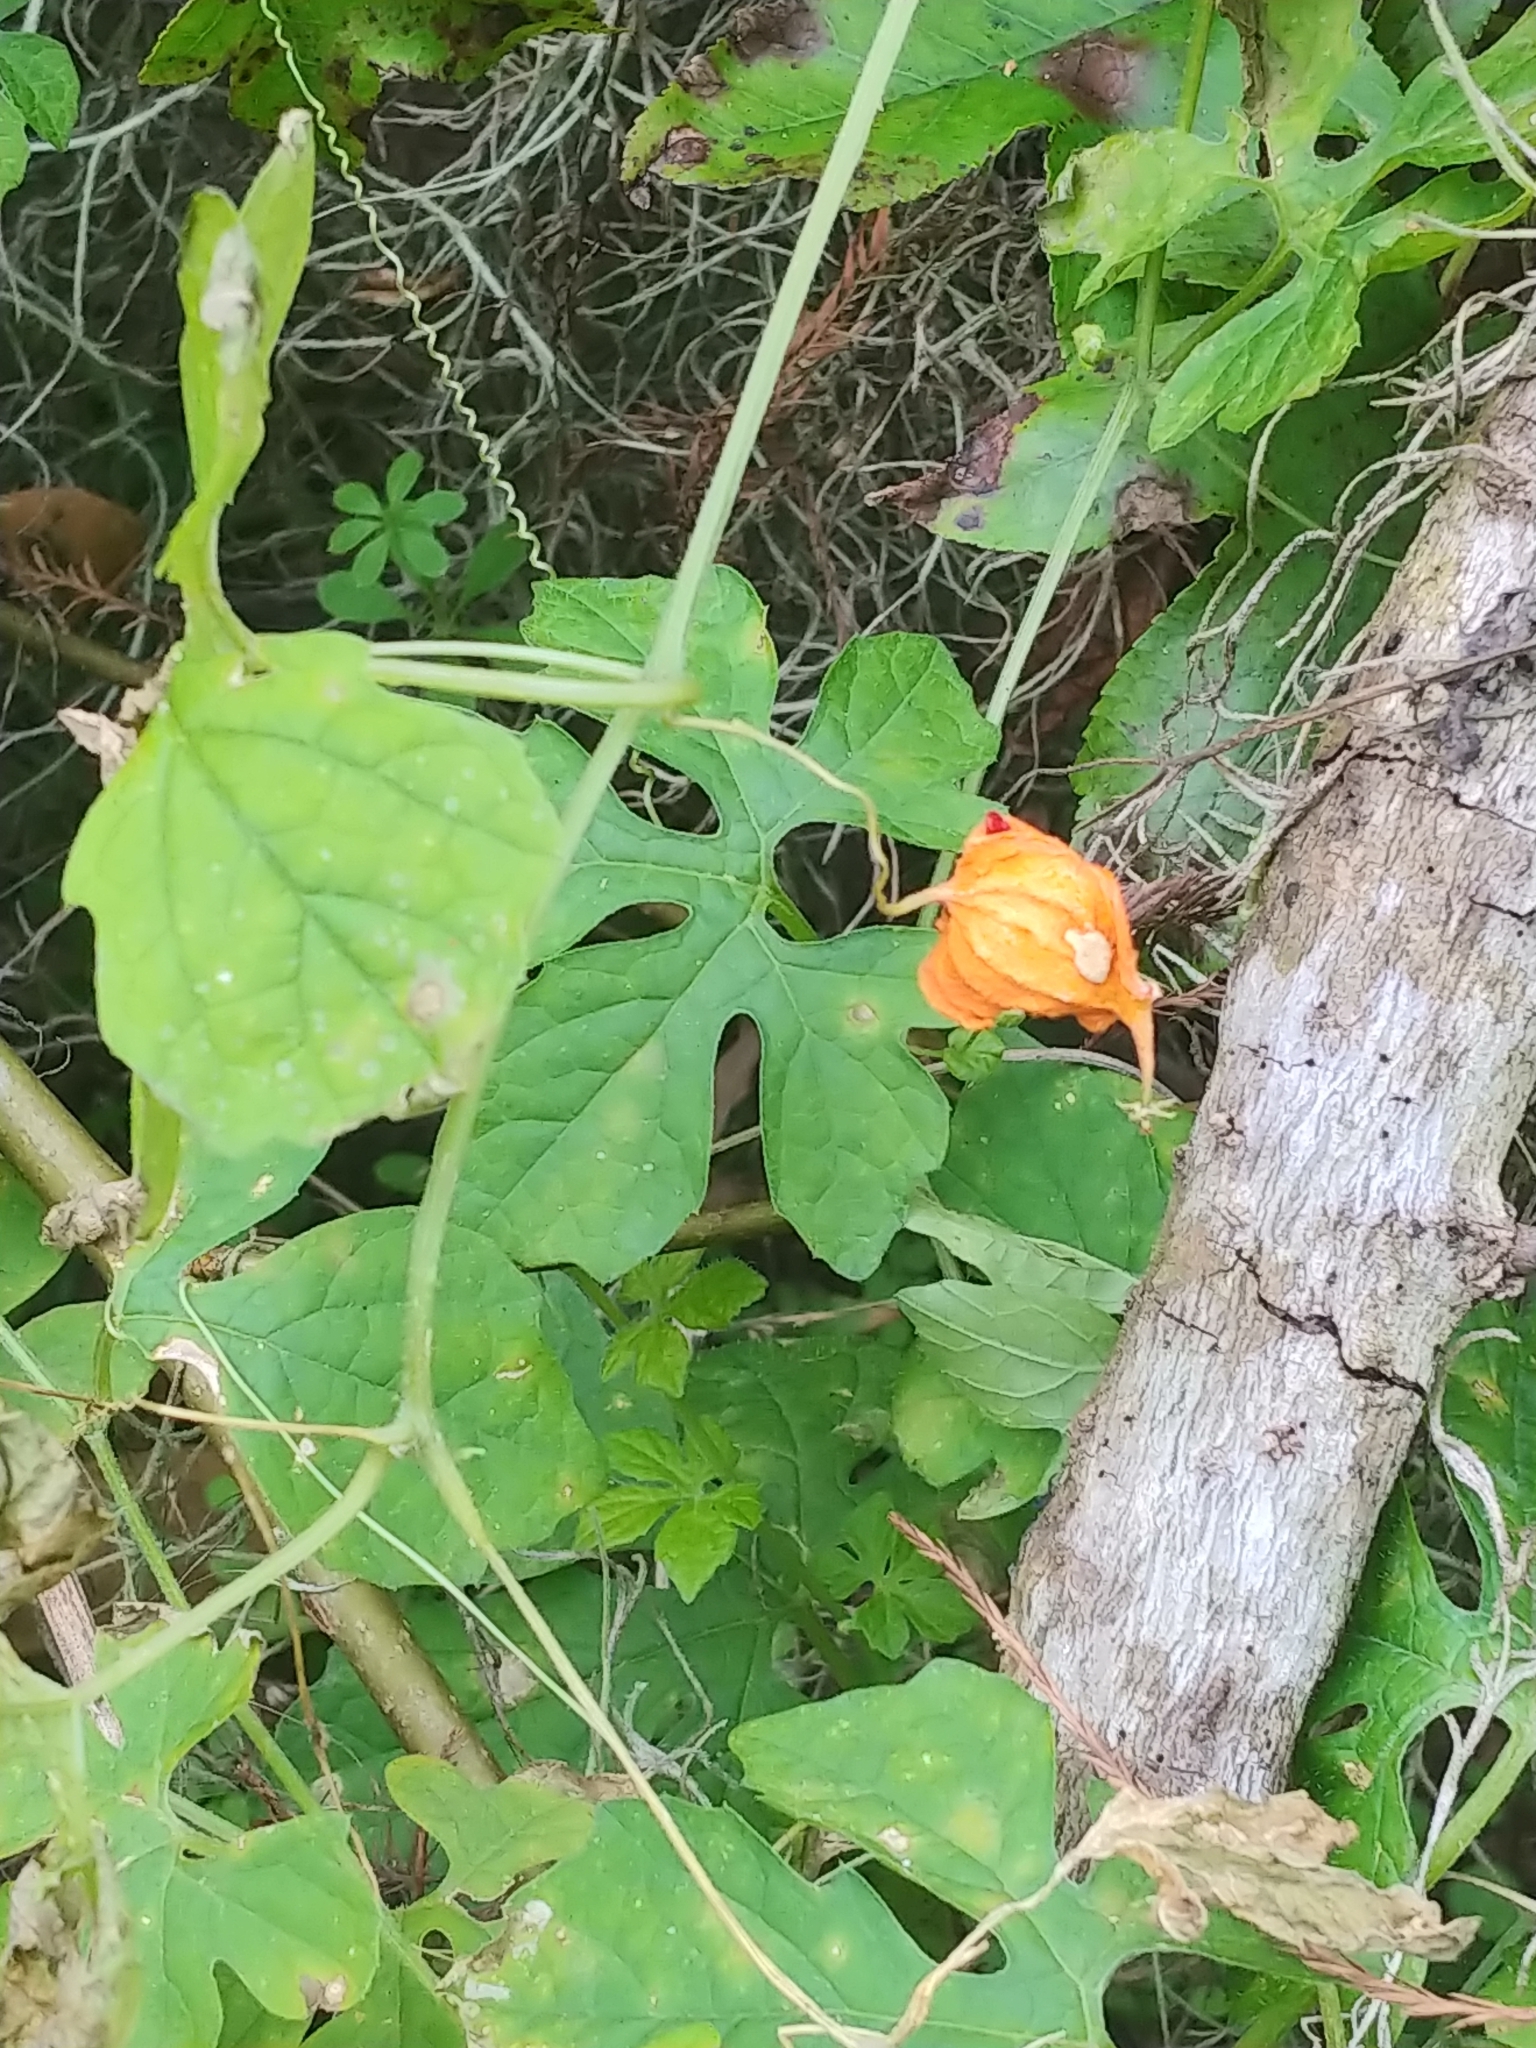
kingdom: Plantae
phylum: Tracheophyta
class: Magnoliopsida
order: Cucurbitales
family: Cucurbitaceae
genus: Momordica
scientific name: Momordica charantia
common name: Balsampear
